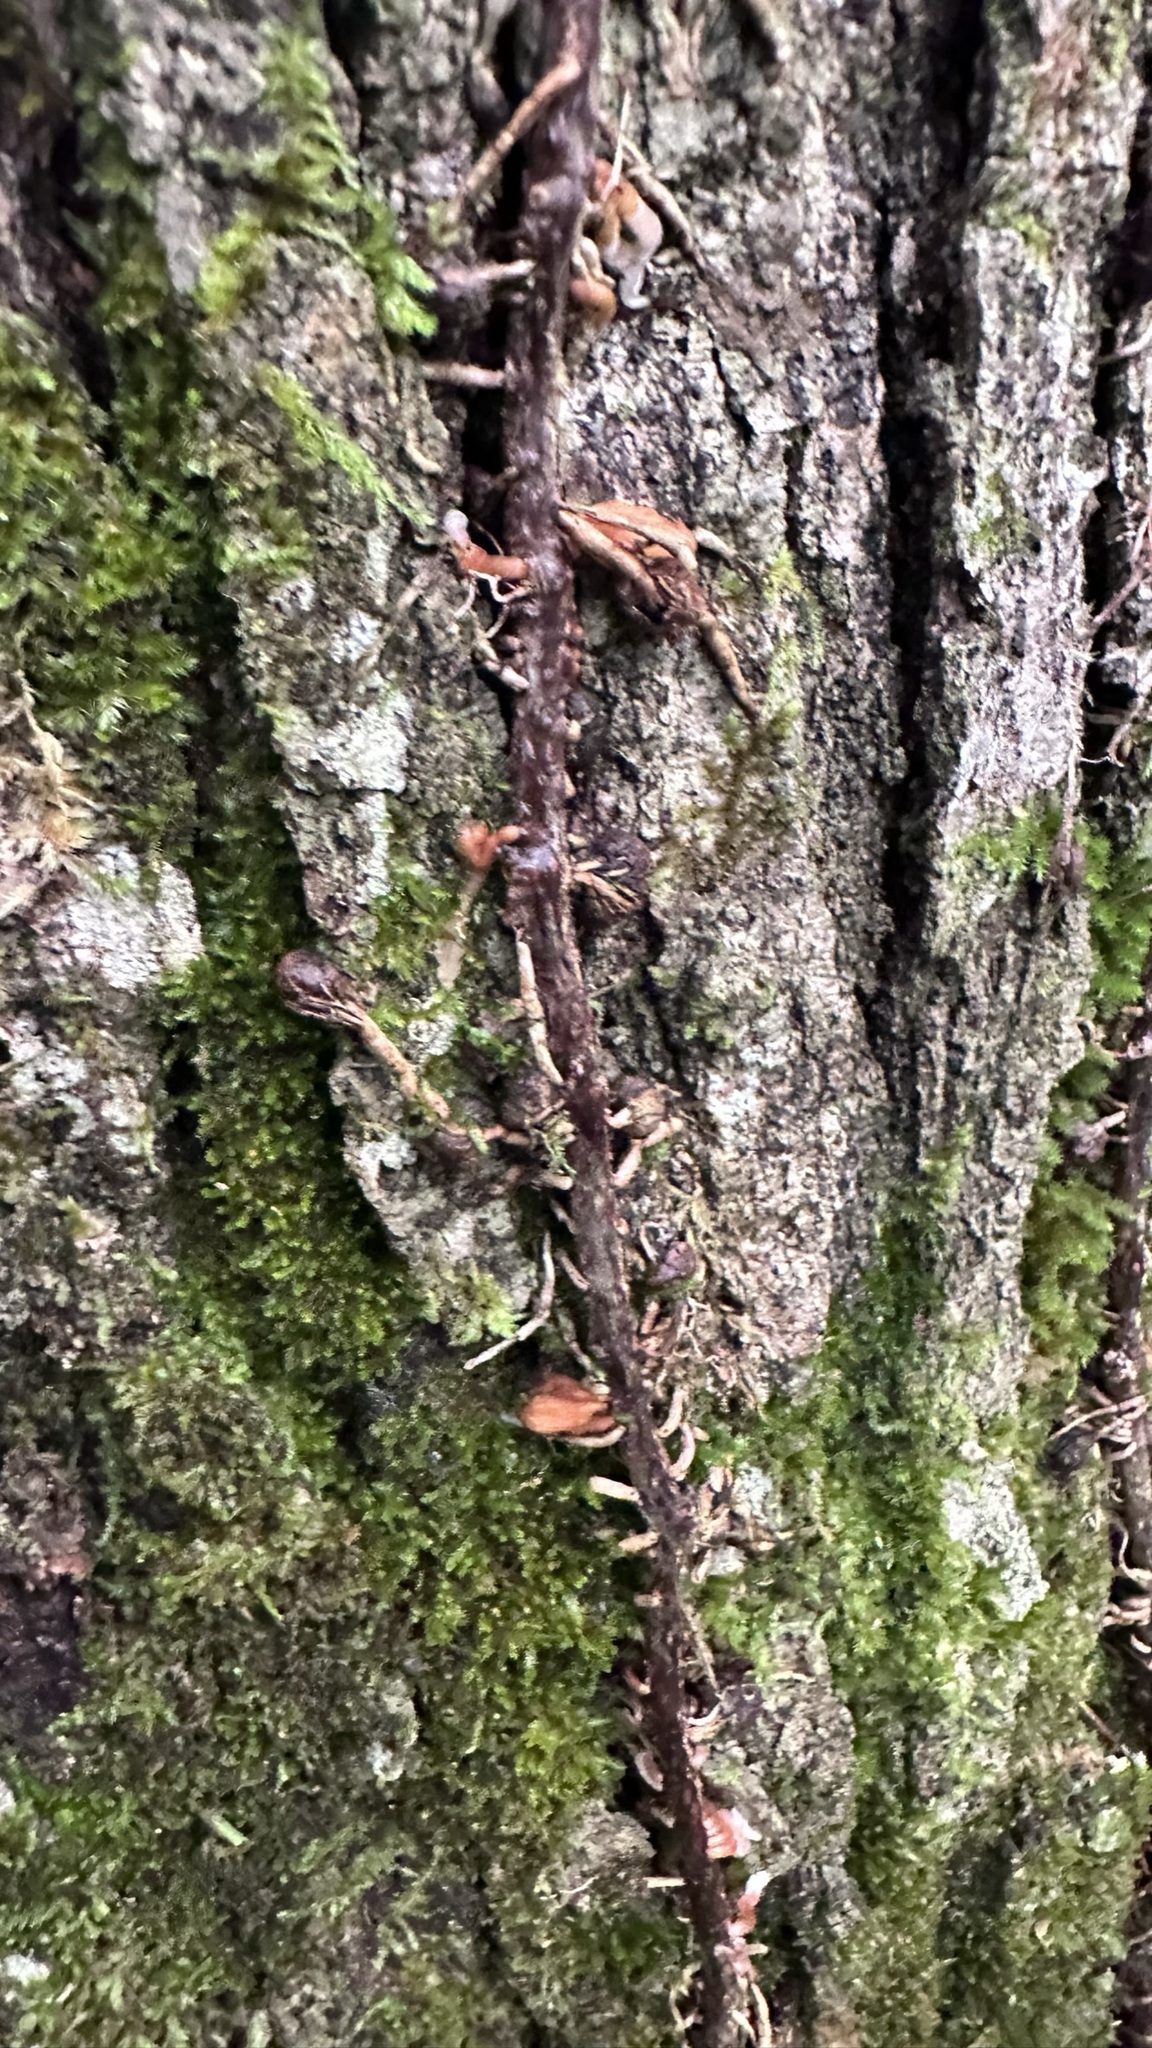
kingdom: Animalia
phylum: Arthropoda
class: Insecta
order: Diptera
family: Cecidomyiidae
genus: Lasioptera
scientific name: Lasioptera psederae
